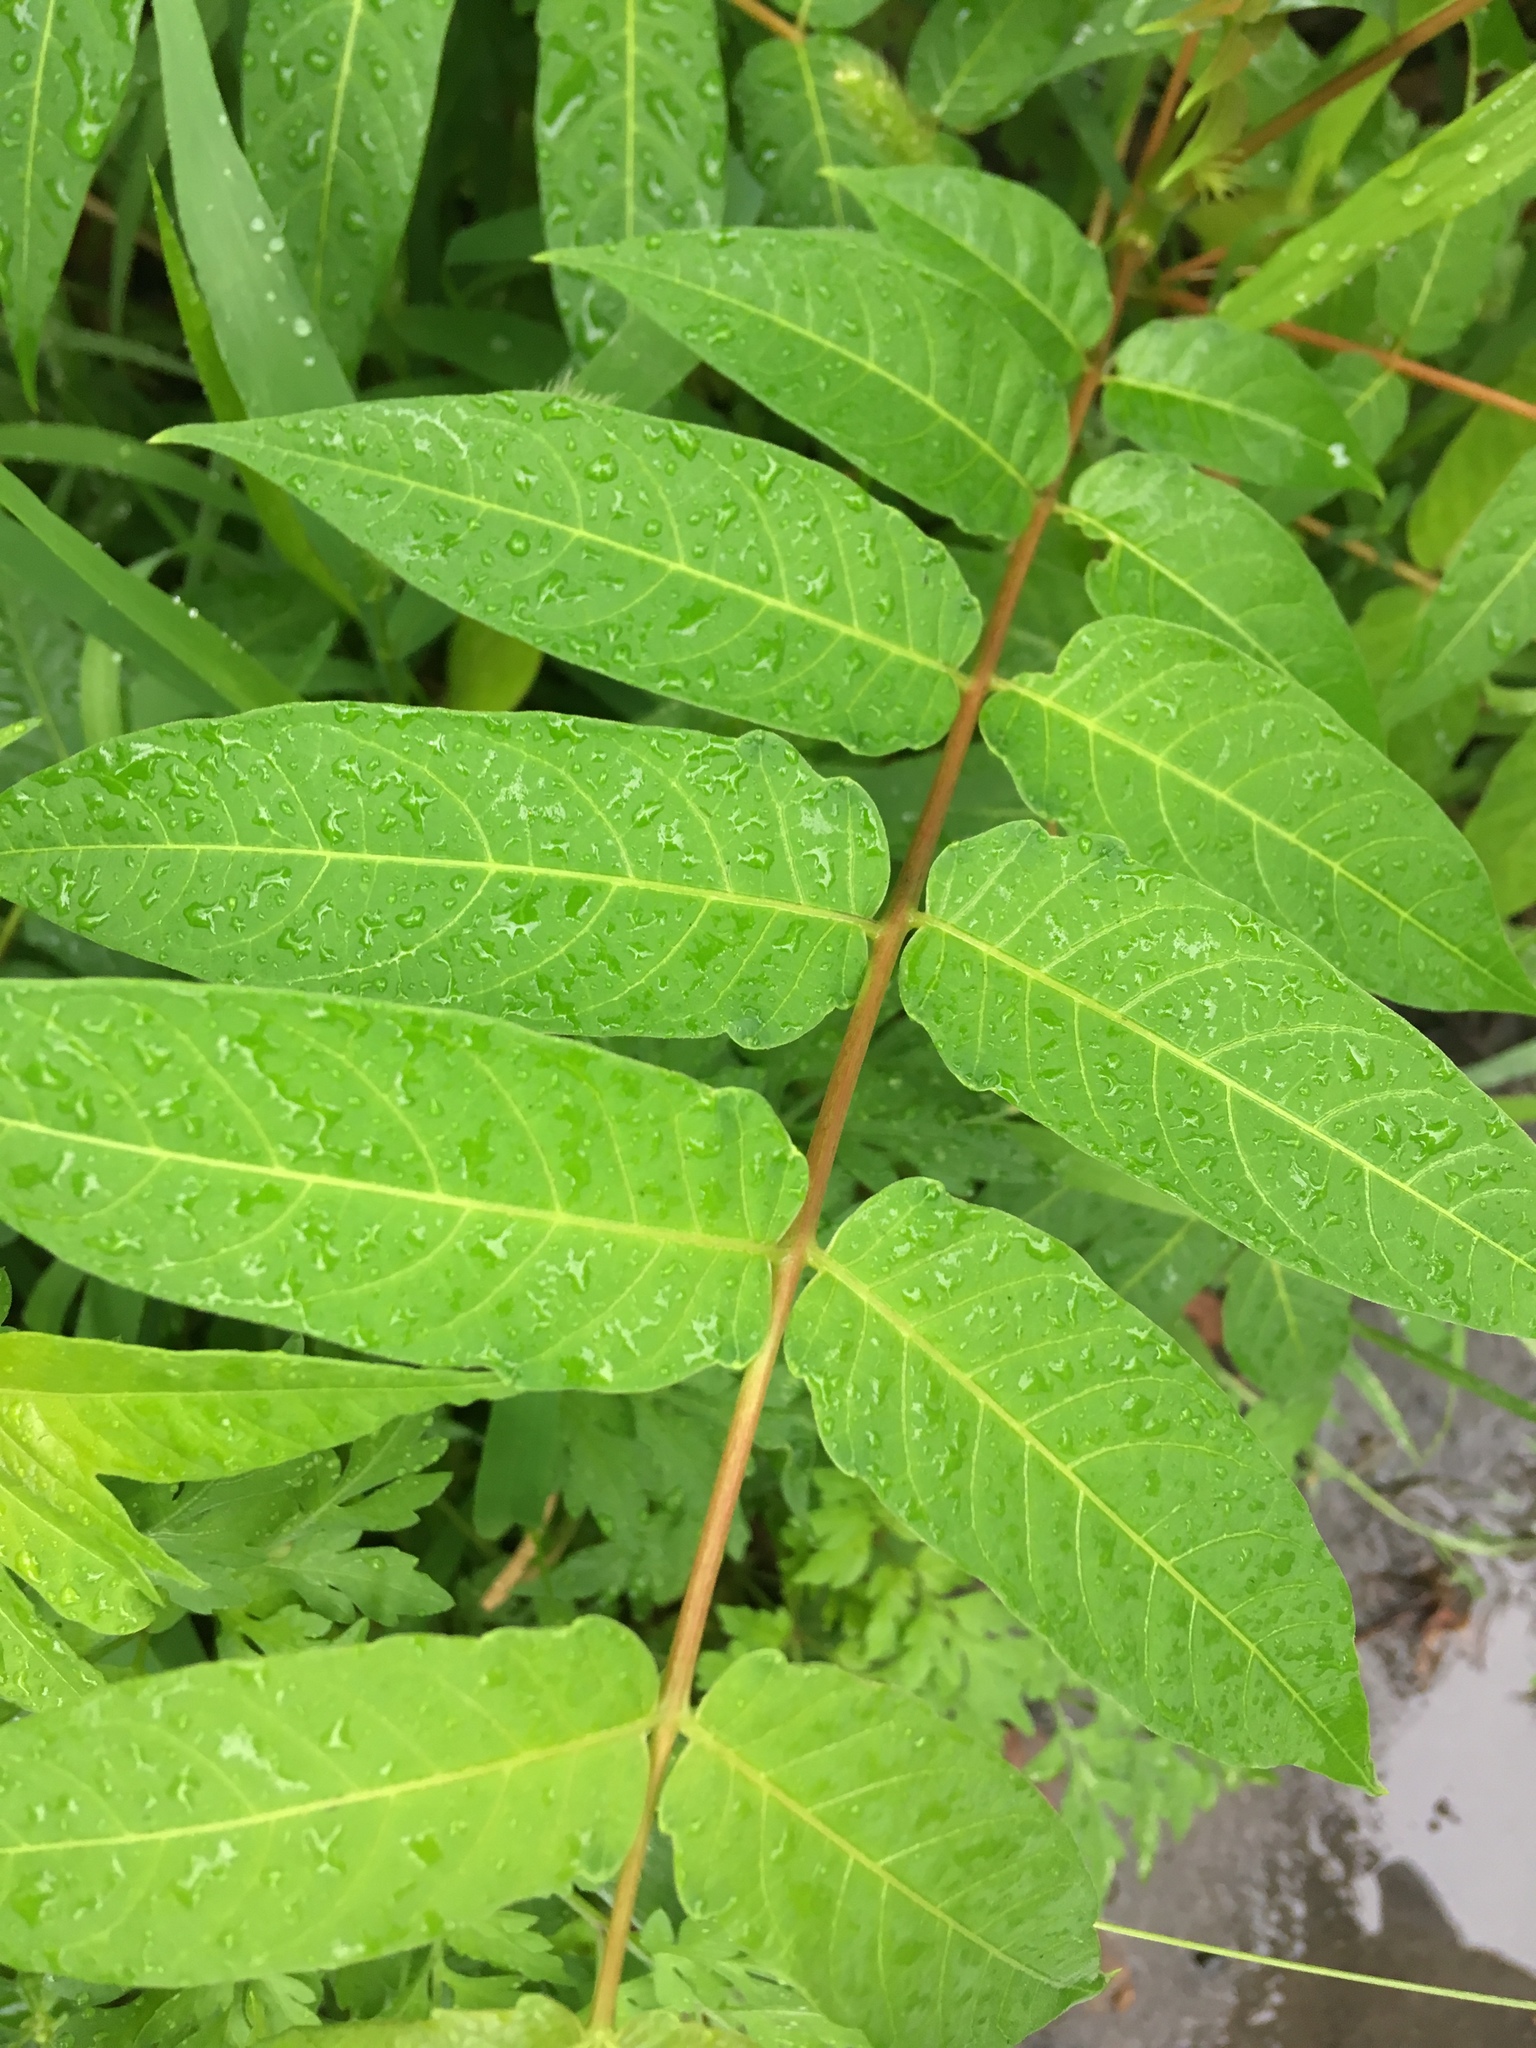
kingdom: Plantae
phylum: Tracheophyta
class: Magnoliopsida
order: Sapindales
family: Simaroubaceae
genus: Ailanthus
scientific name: Ailanthus altissima
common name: Tree-of-heaven
